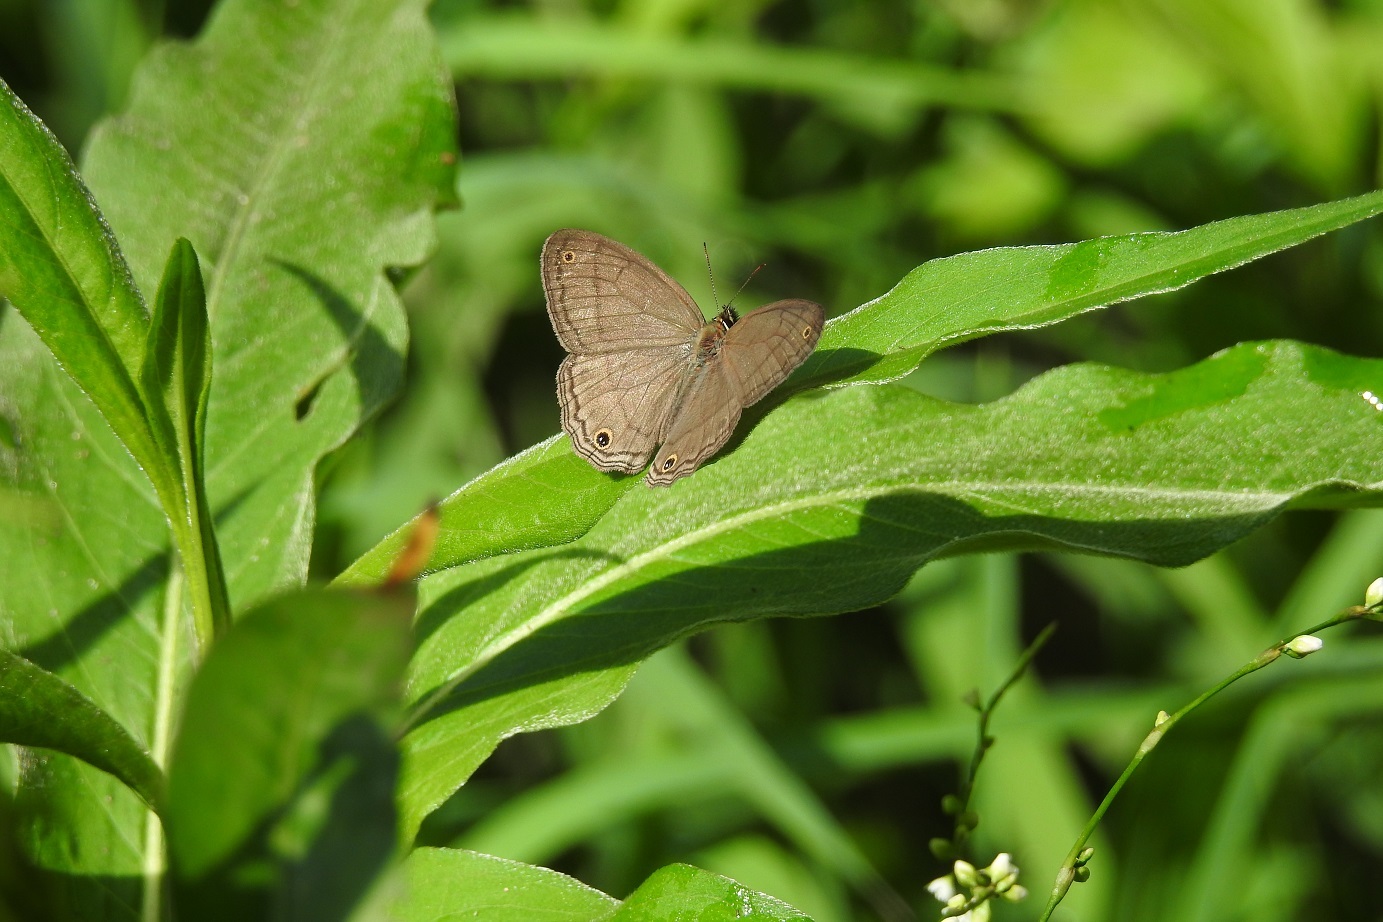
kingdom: Animalia
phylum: Arthropoda
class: Insecta
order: Lepidoptera
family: Nymphalidae
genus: Euptychia
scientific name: Euptychia Cissia pompilia
